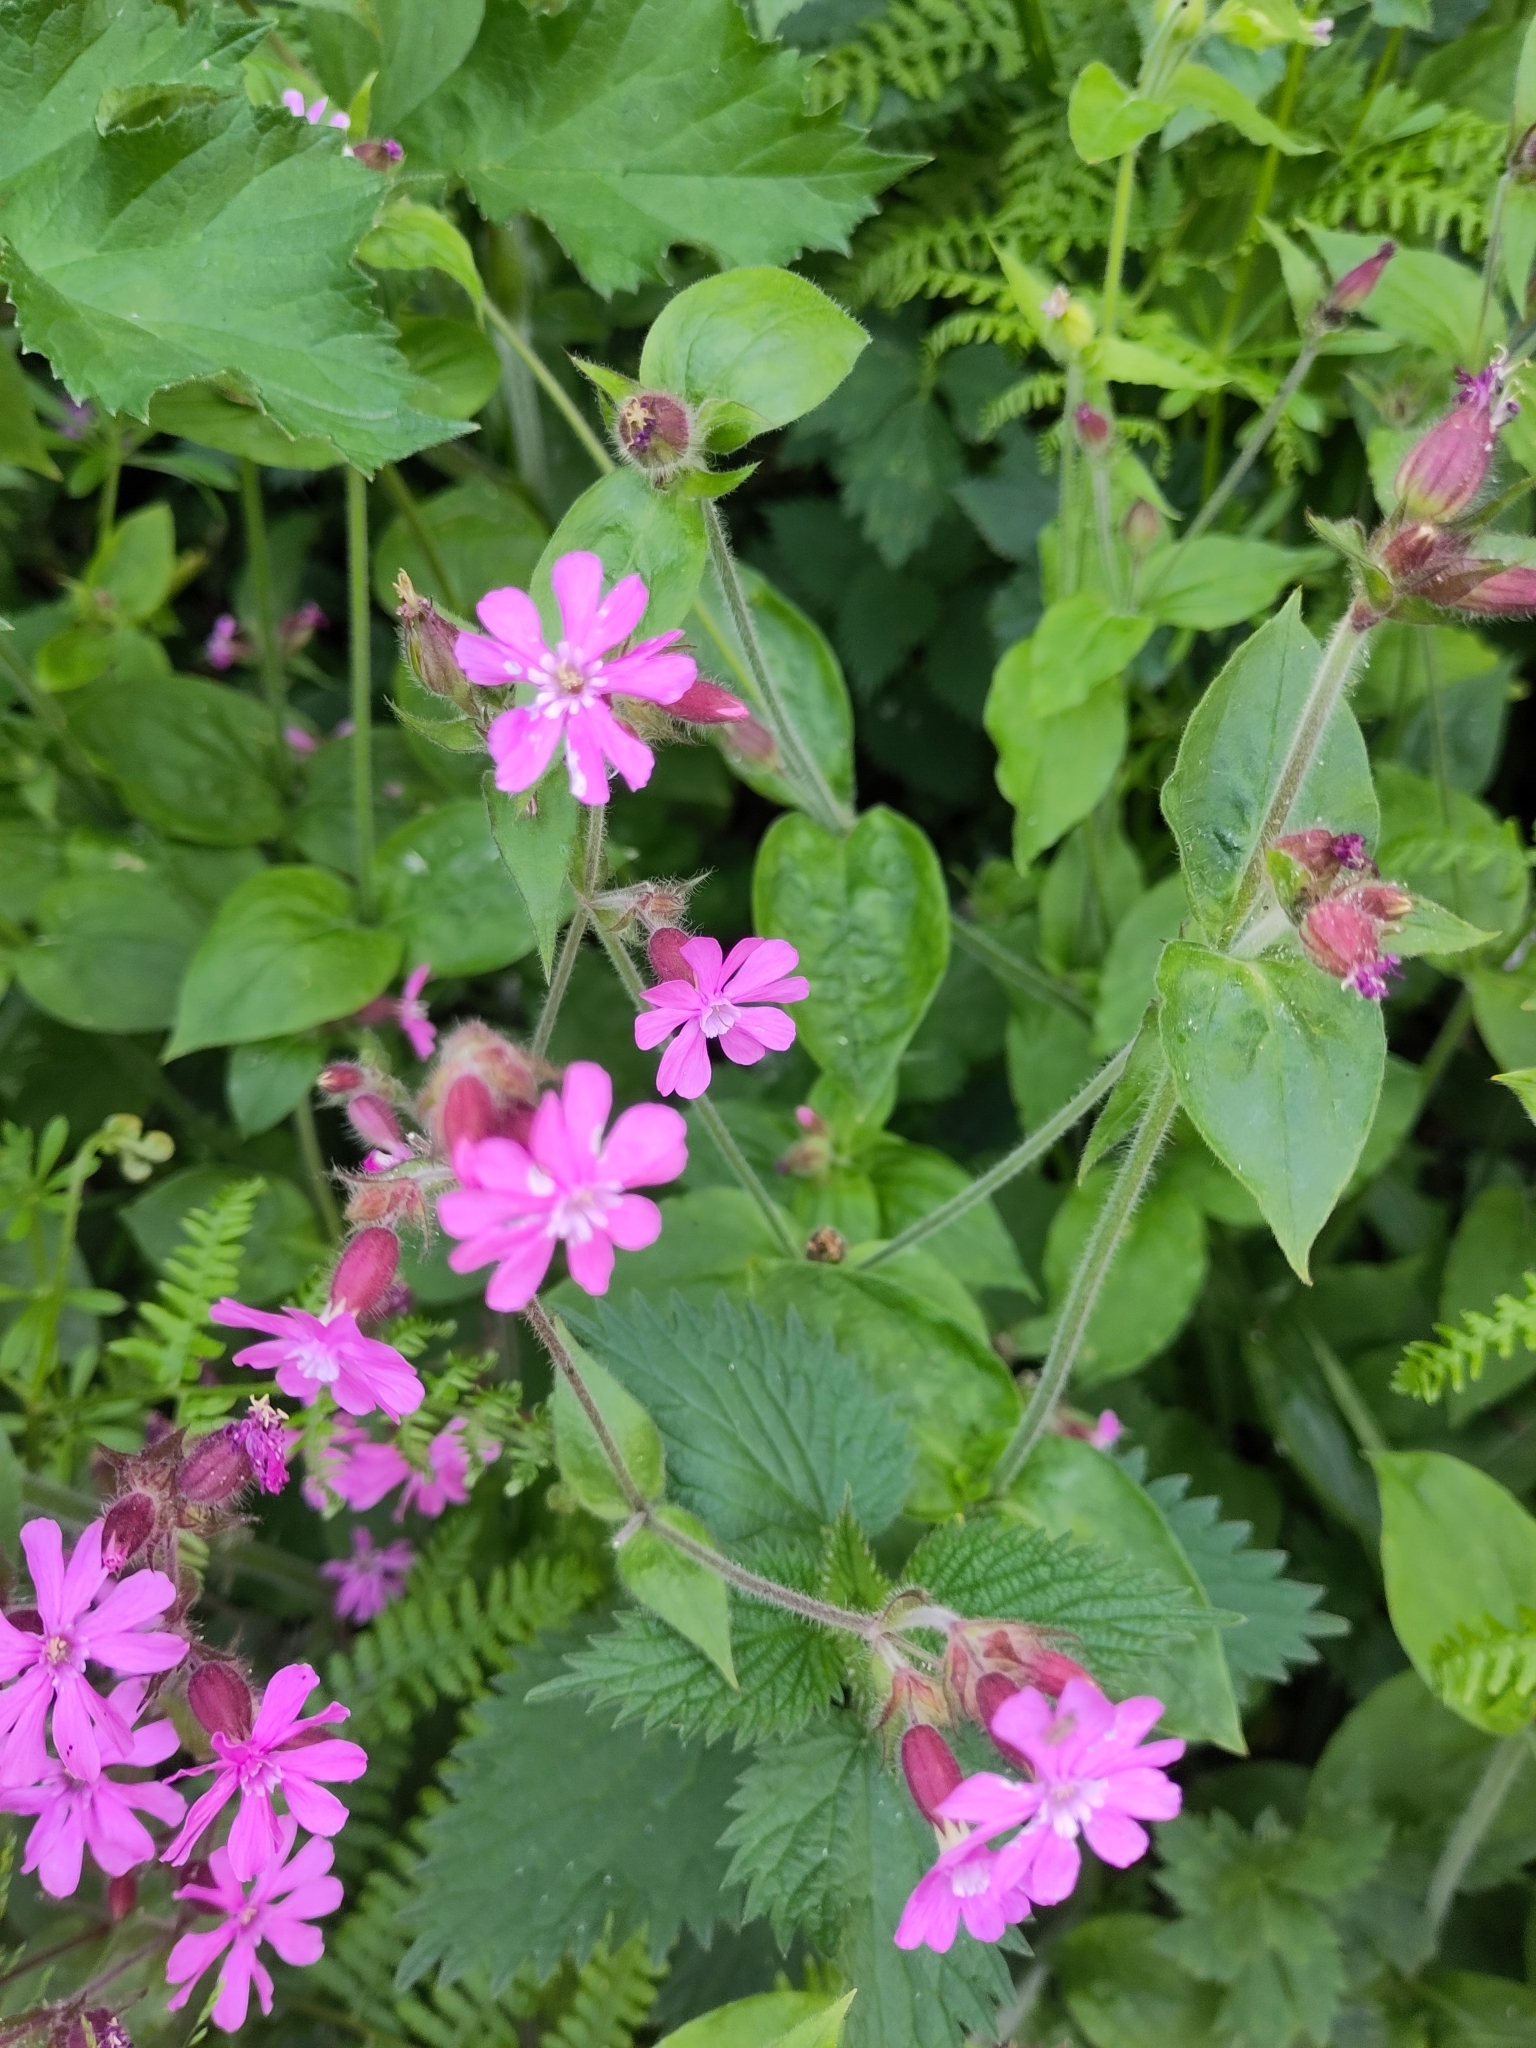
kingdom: Plantae
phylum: Tracheophyta
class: Magnoliopsida
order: Caryophyllales
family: Caryophyllaceae
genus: Silene
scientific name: Silene dioica
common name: Red campion
